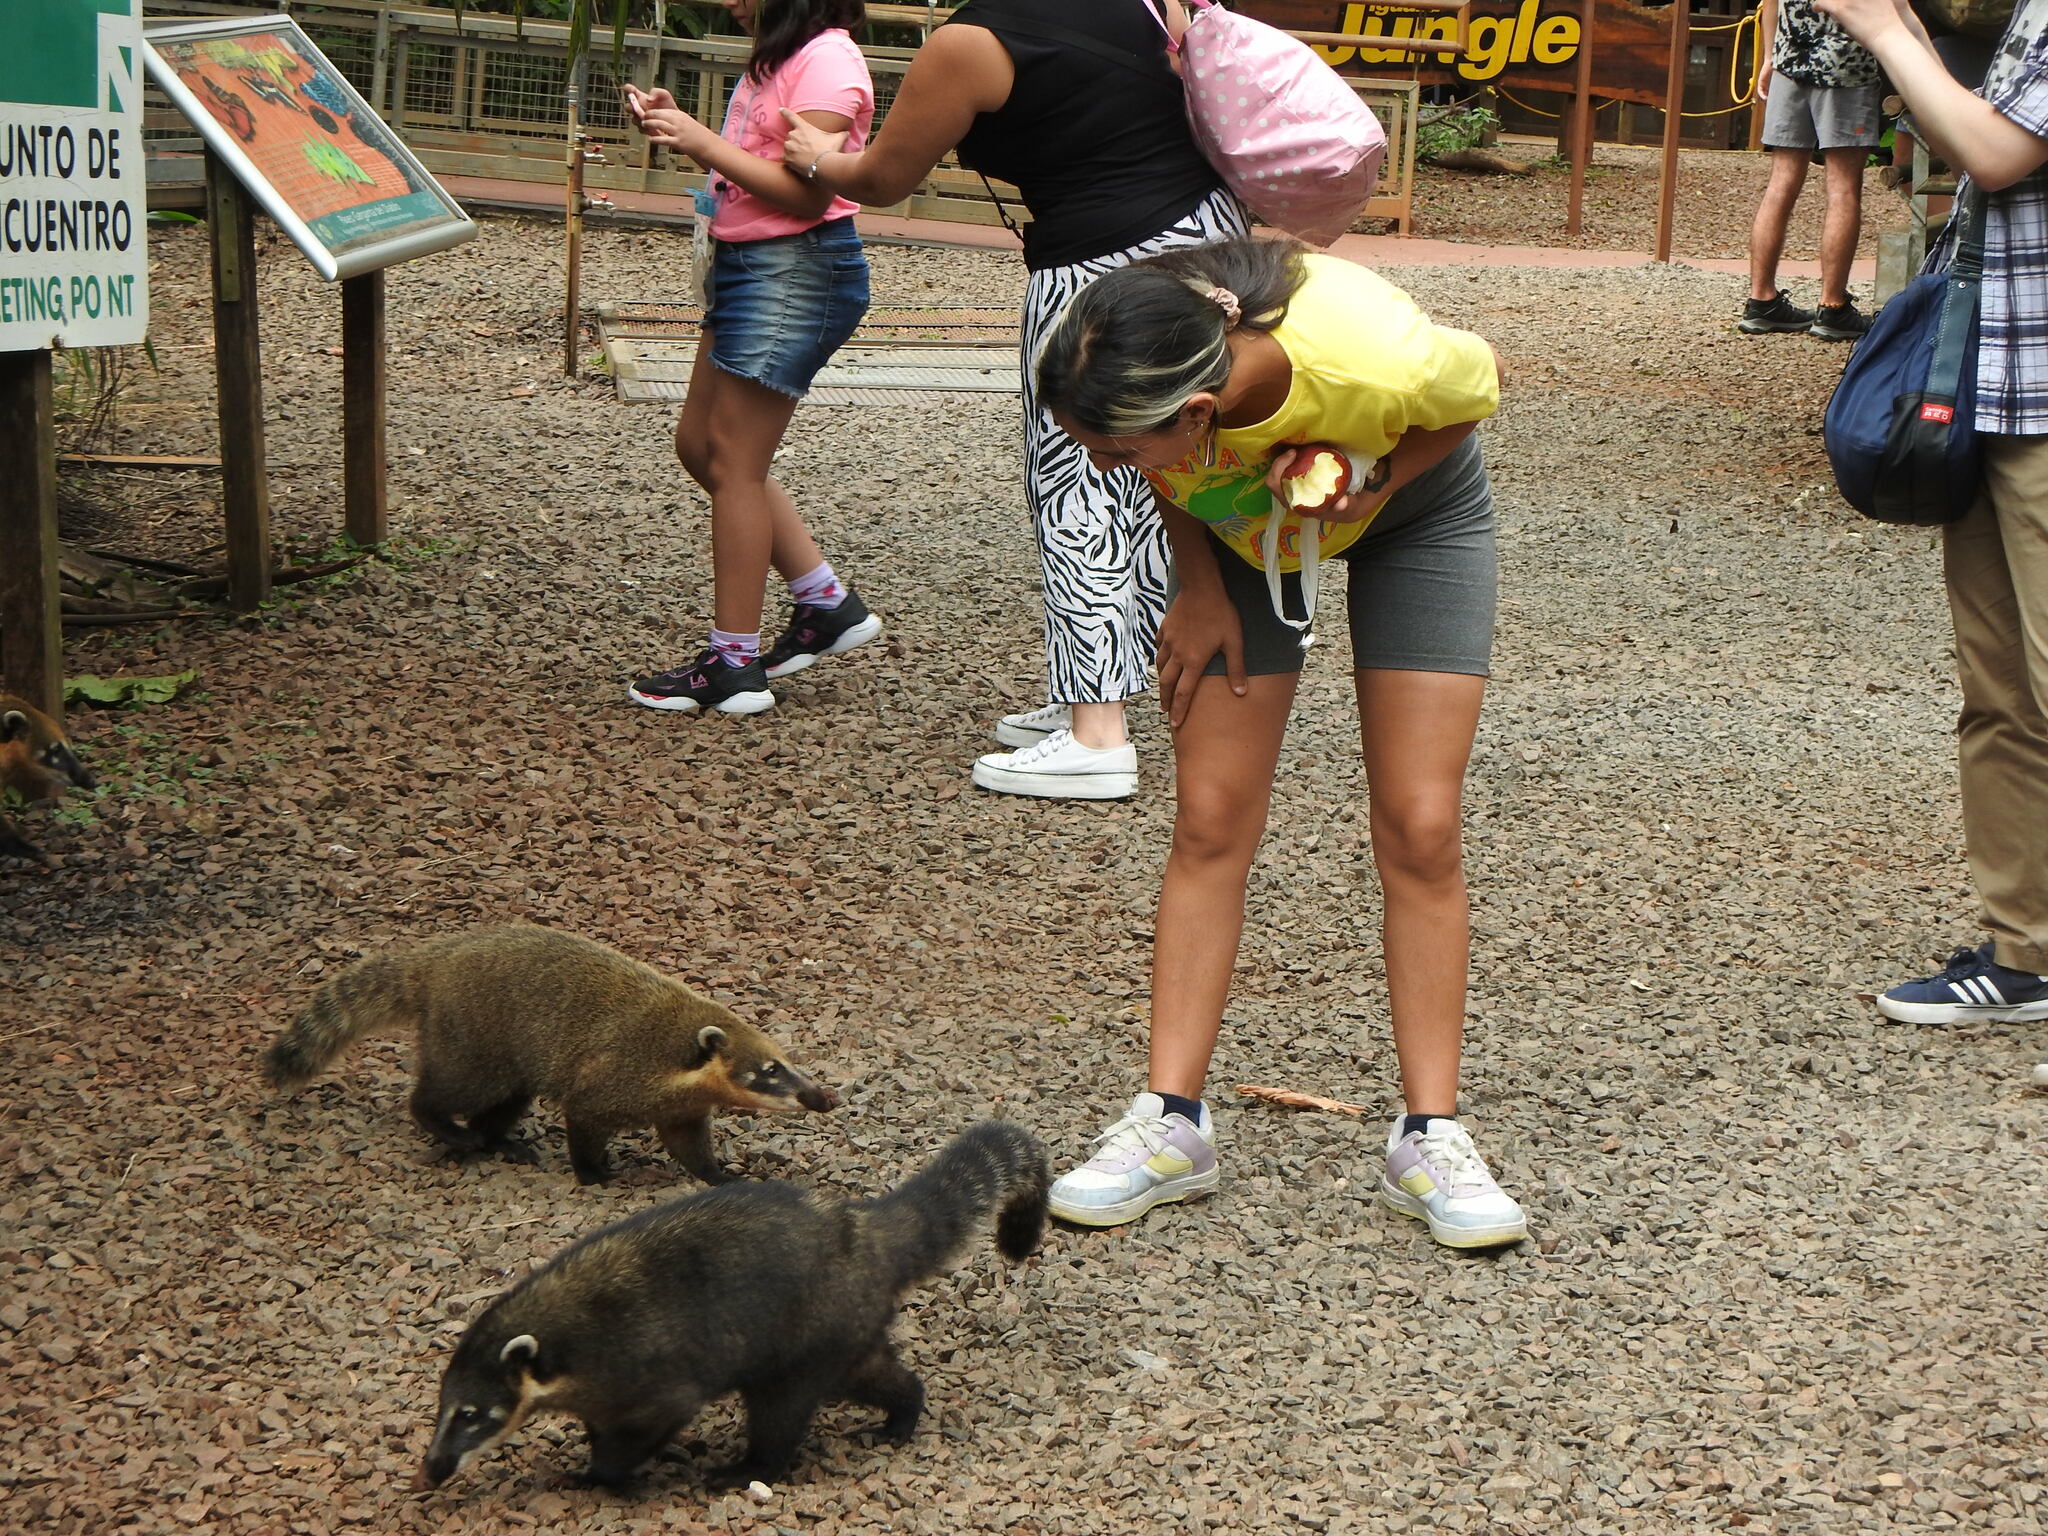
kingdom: Animalia
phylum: Chordata
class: Mammalia
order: Carnivora
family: Procyonidae
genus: Nasua
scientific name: Nasua nasua
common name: South american coati
